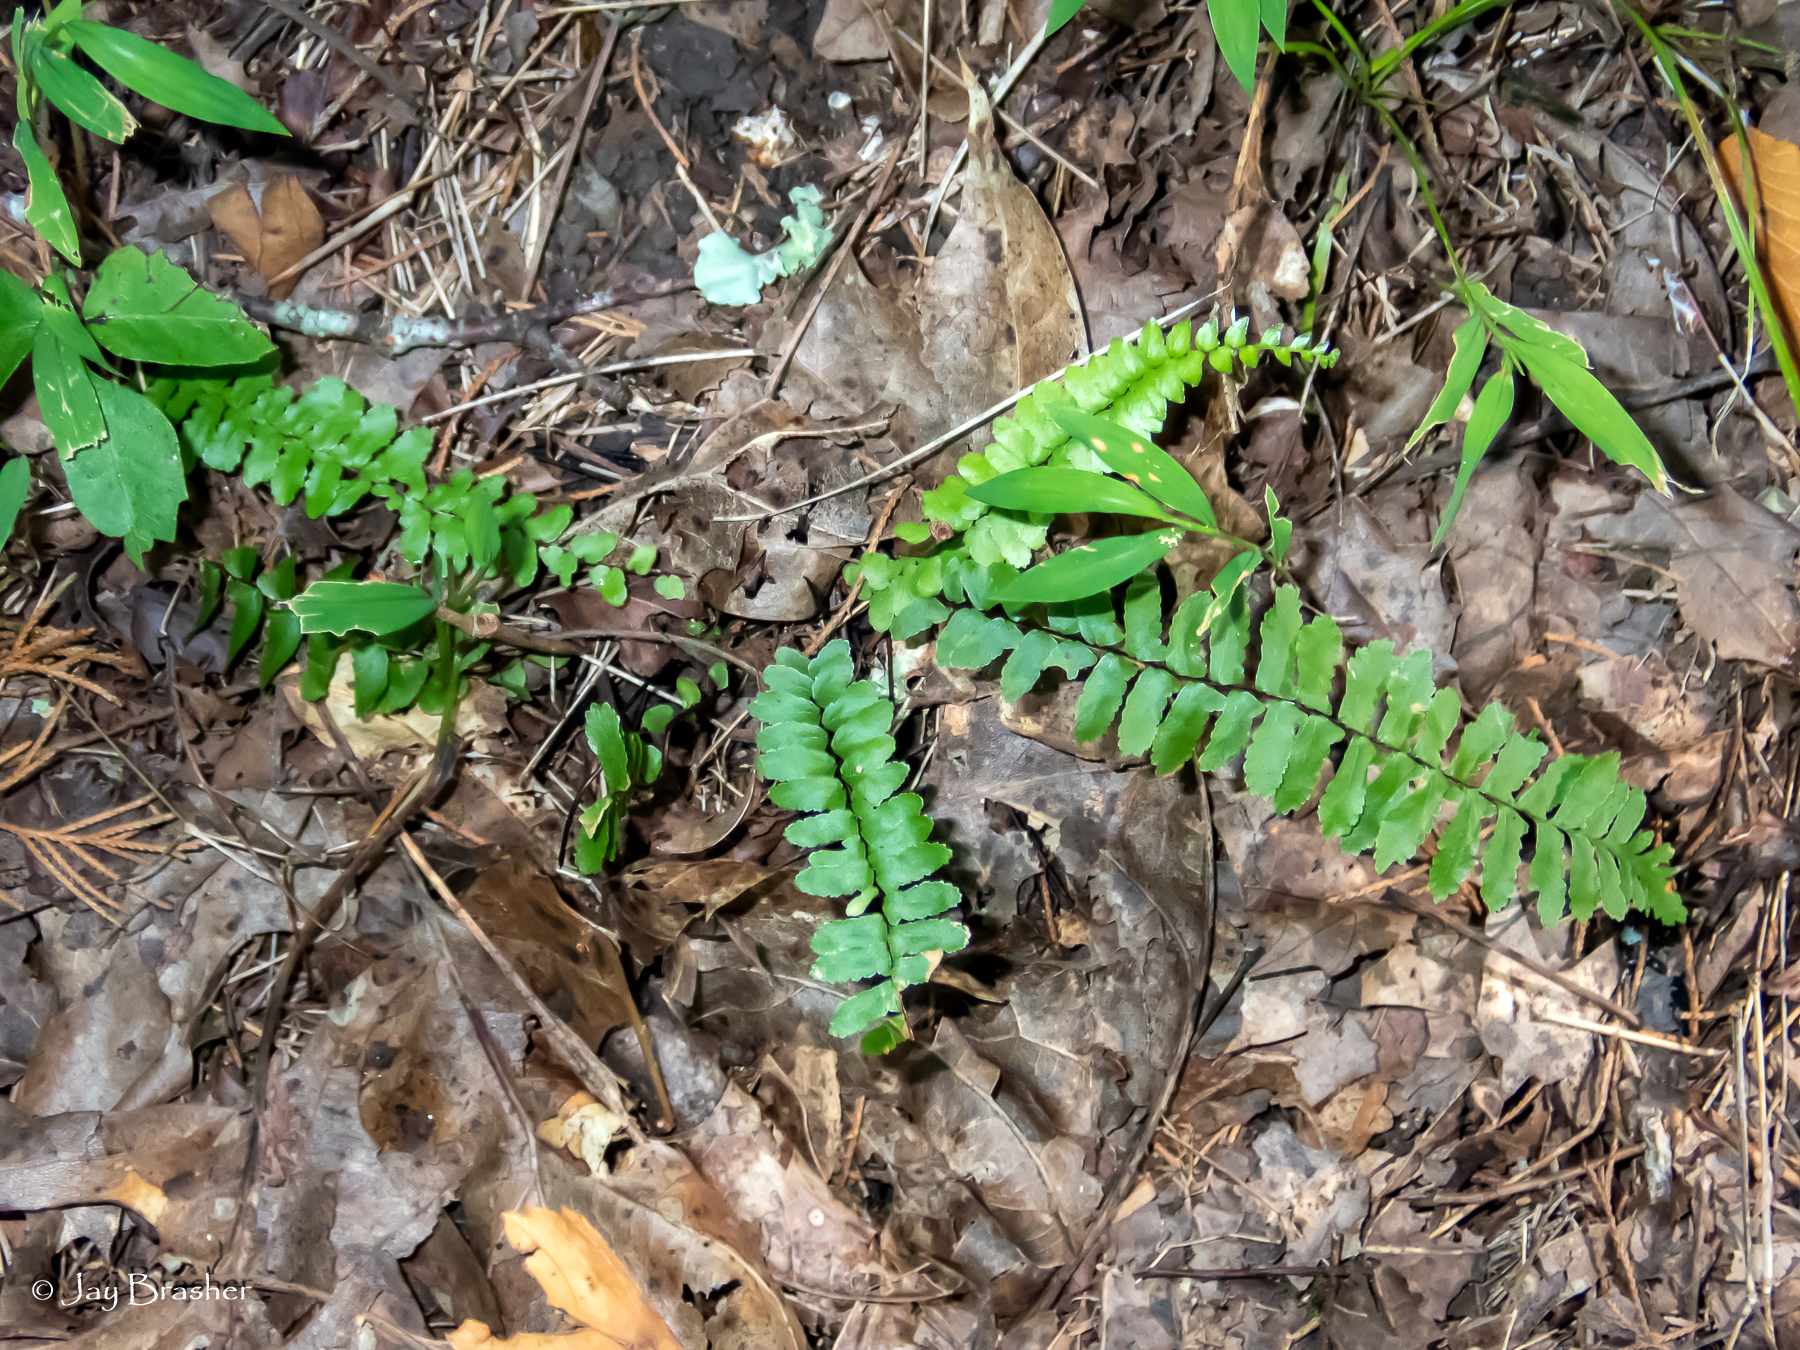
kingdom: Plantae
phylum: Tracheophyta
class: Polypodiopsida
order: Polypodiales
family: Aspleniaceae
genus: Asplenium
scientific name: Asplenium platyneuron
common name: Ebony spleenwort
